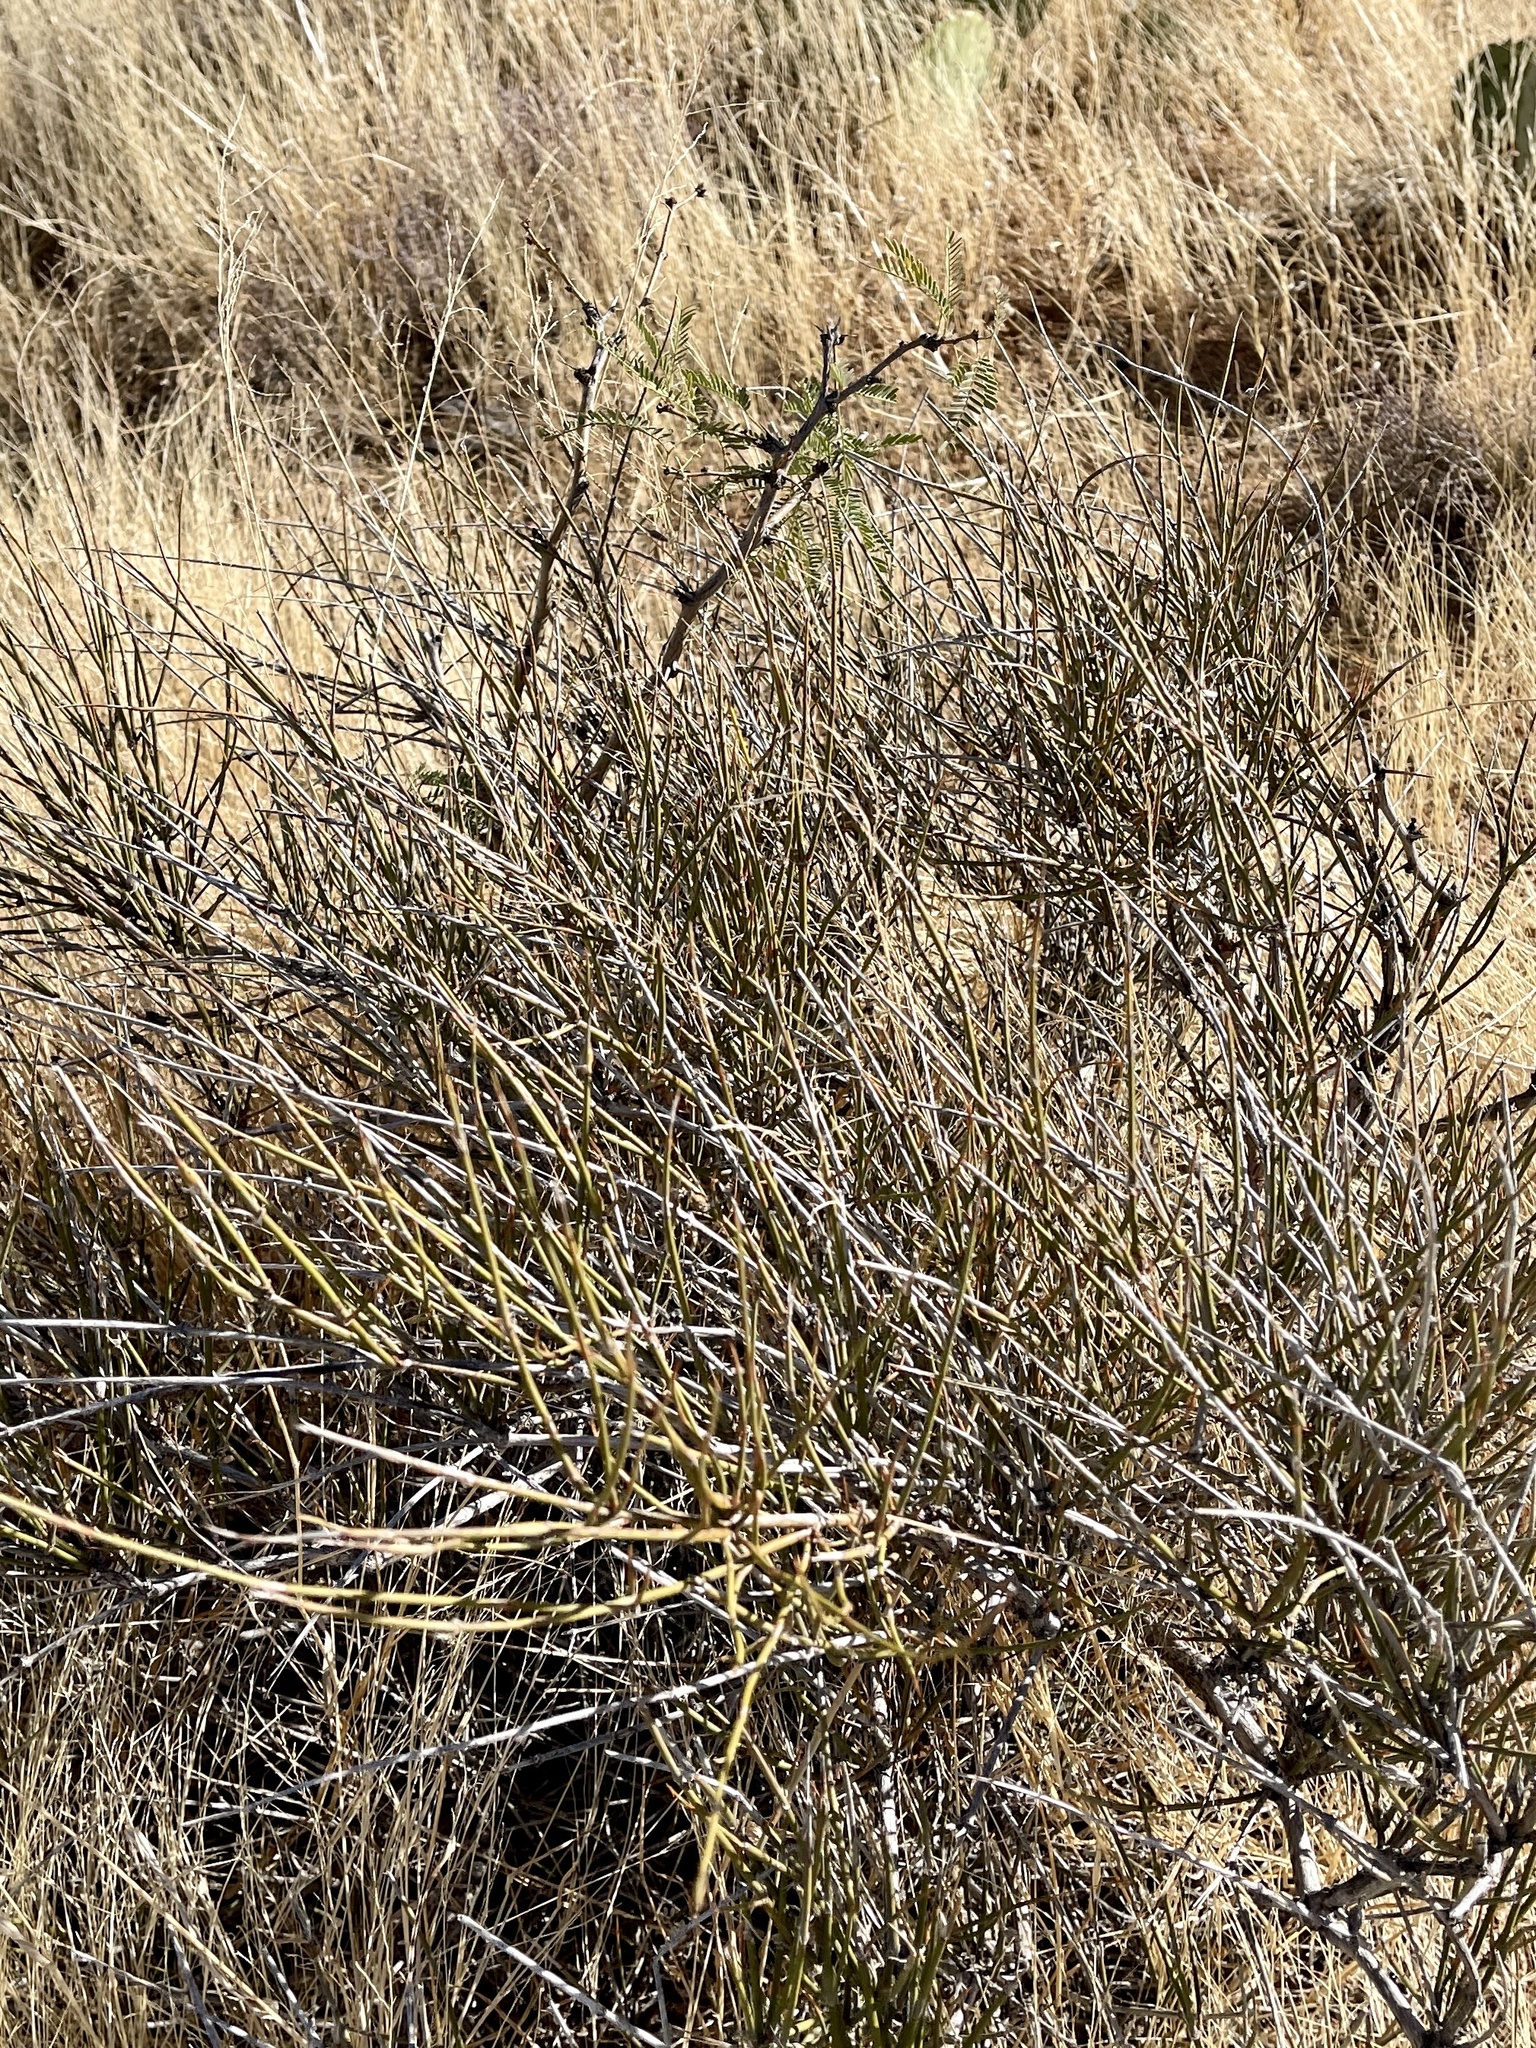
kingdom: Plantae
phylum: Tracheophyta
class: Magnoliopsida
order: Fabales
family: Fabaceae
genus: Prosopis
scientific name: Prosopis glandulosa
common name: Honey mesquite
